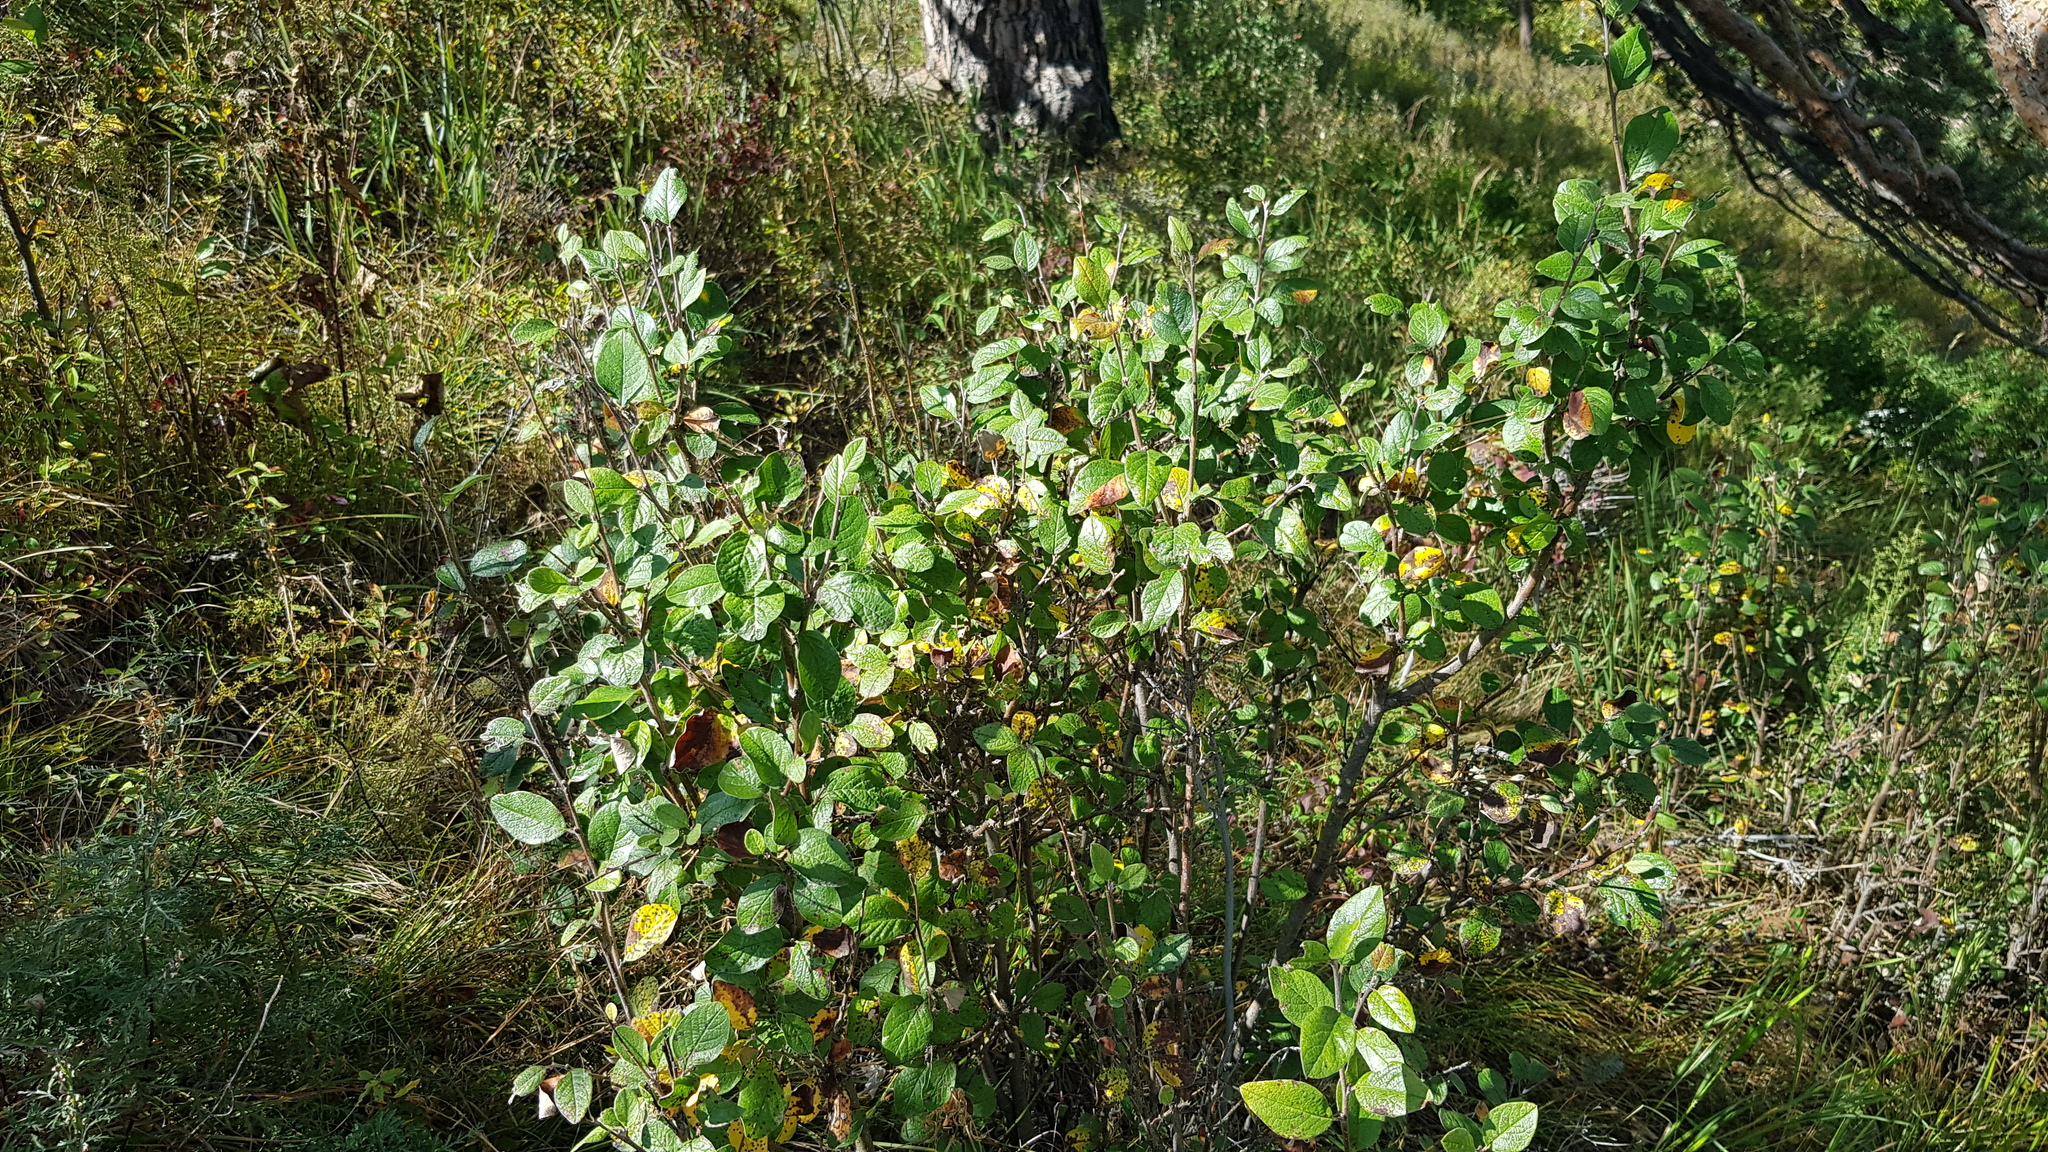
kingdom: Plantae
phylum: Tracheophyta
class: Magnoliopsida
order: Rosales
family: Rosaceae
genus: Cotoneaster
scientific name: Cotoneaster melanocarpus
